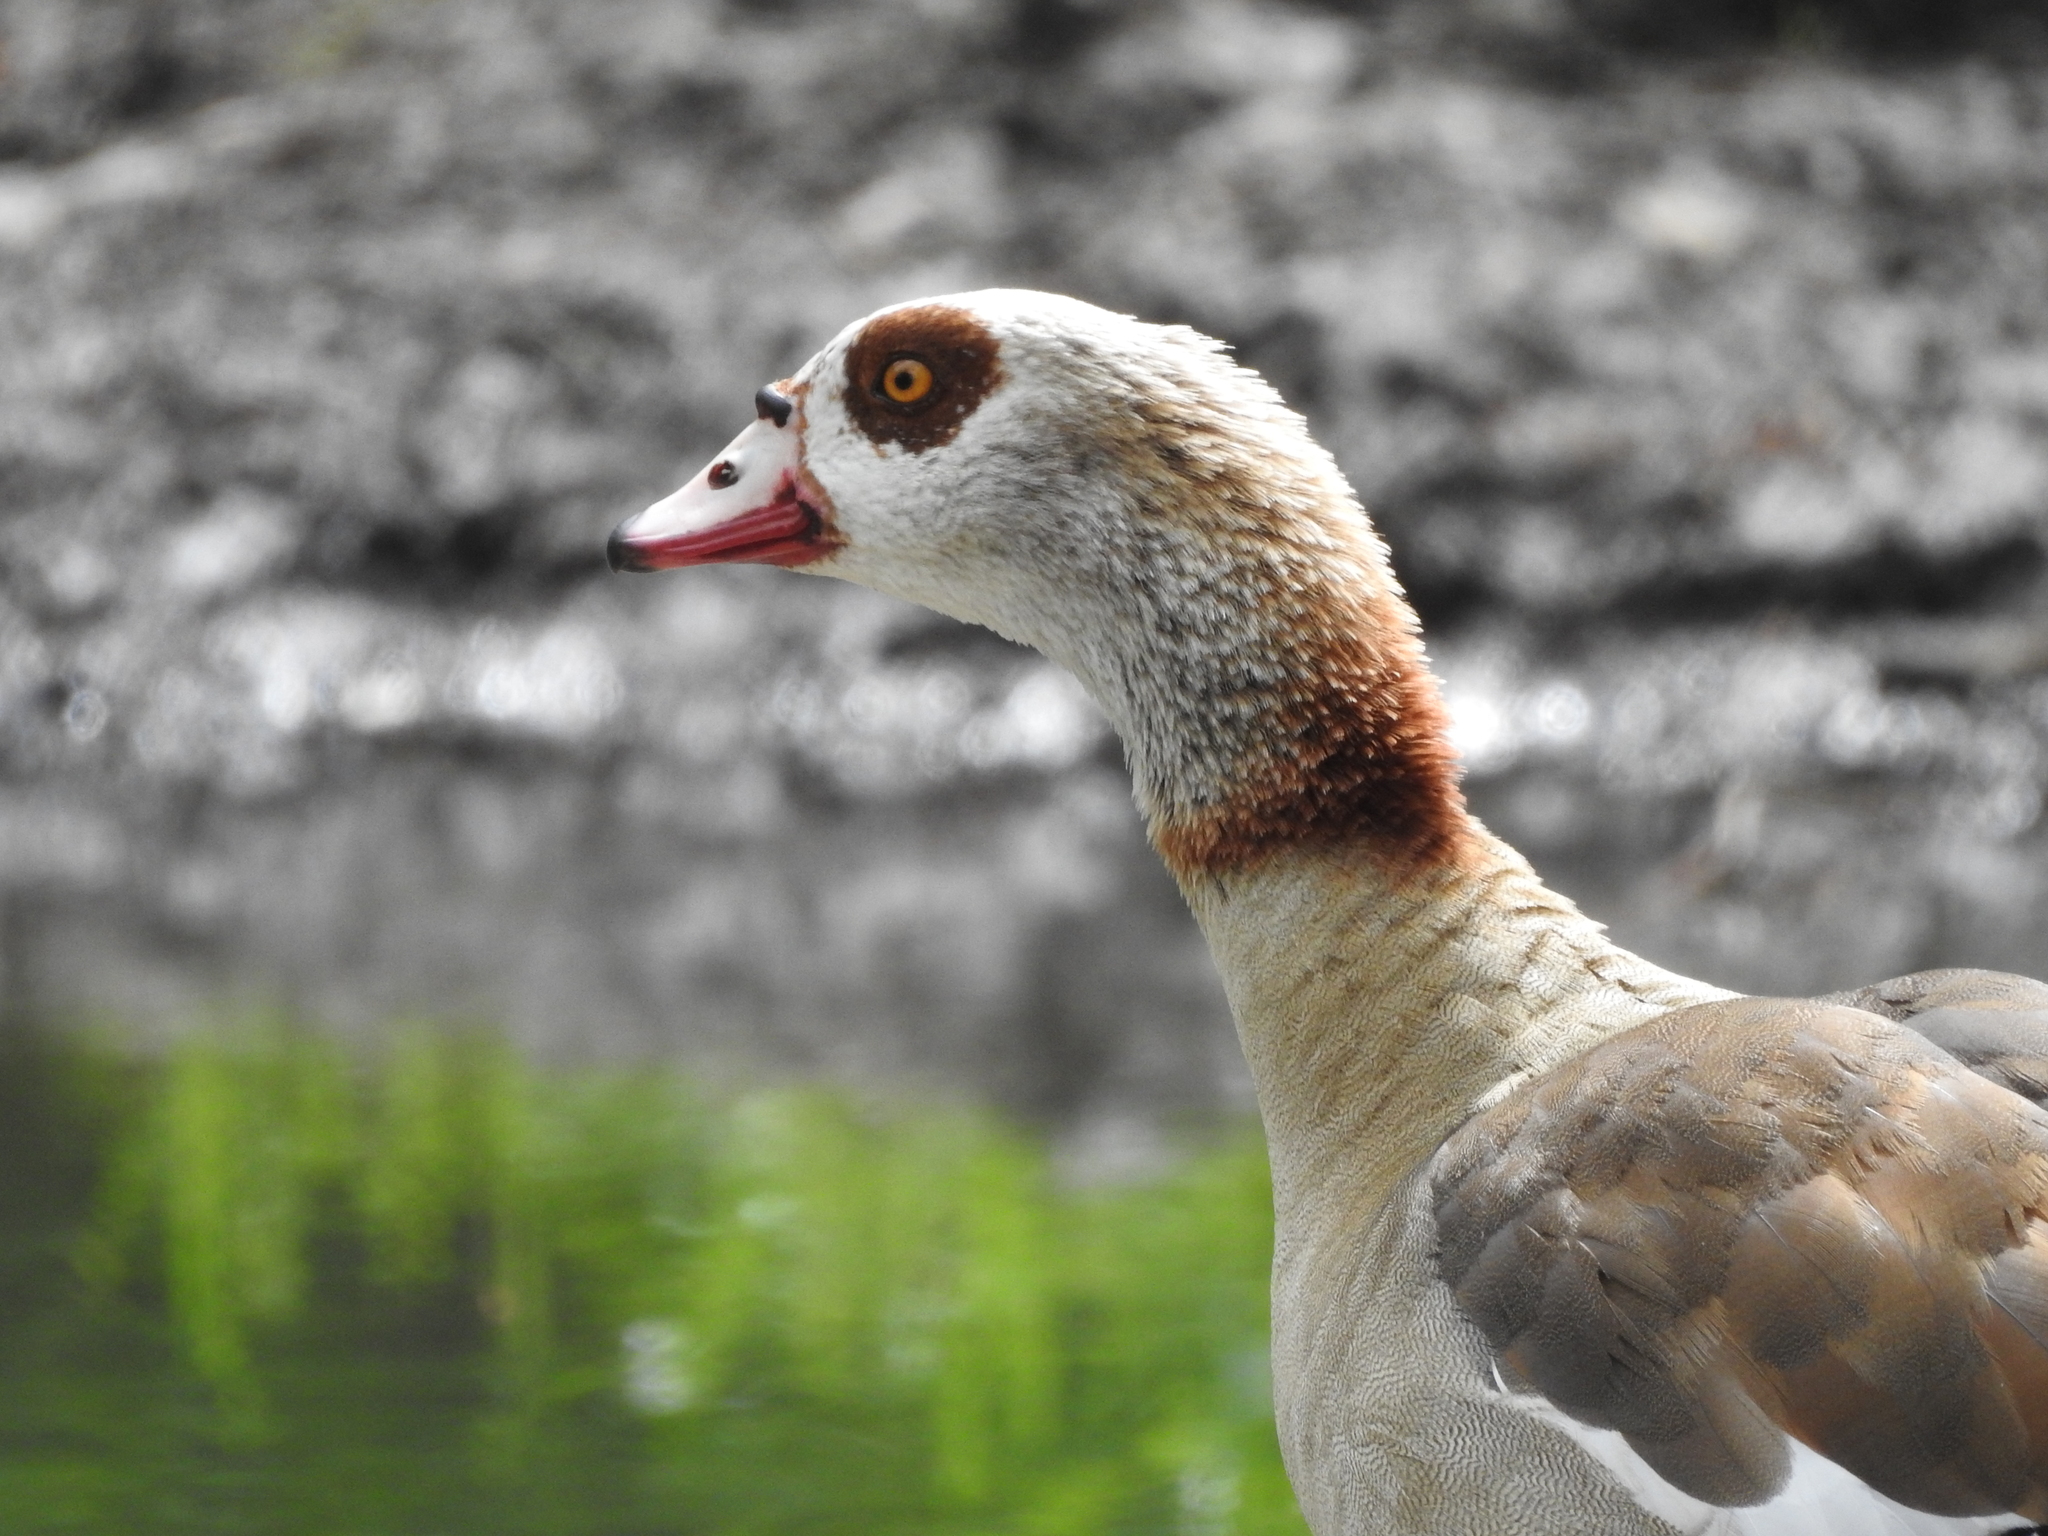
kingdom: Animalia
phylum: Chordata
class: Aves
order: Anseriformes
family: Anatidae
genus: Alopochen
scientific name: Alopochen aegyptiaca
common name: Egyptian goose
